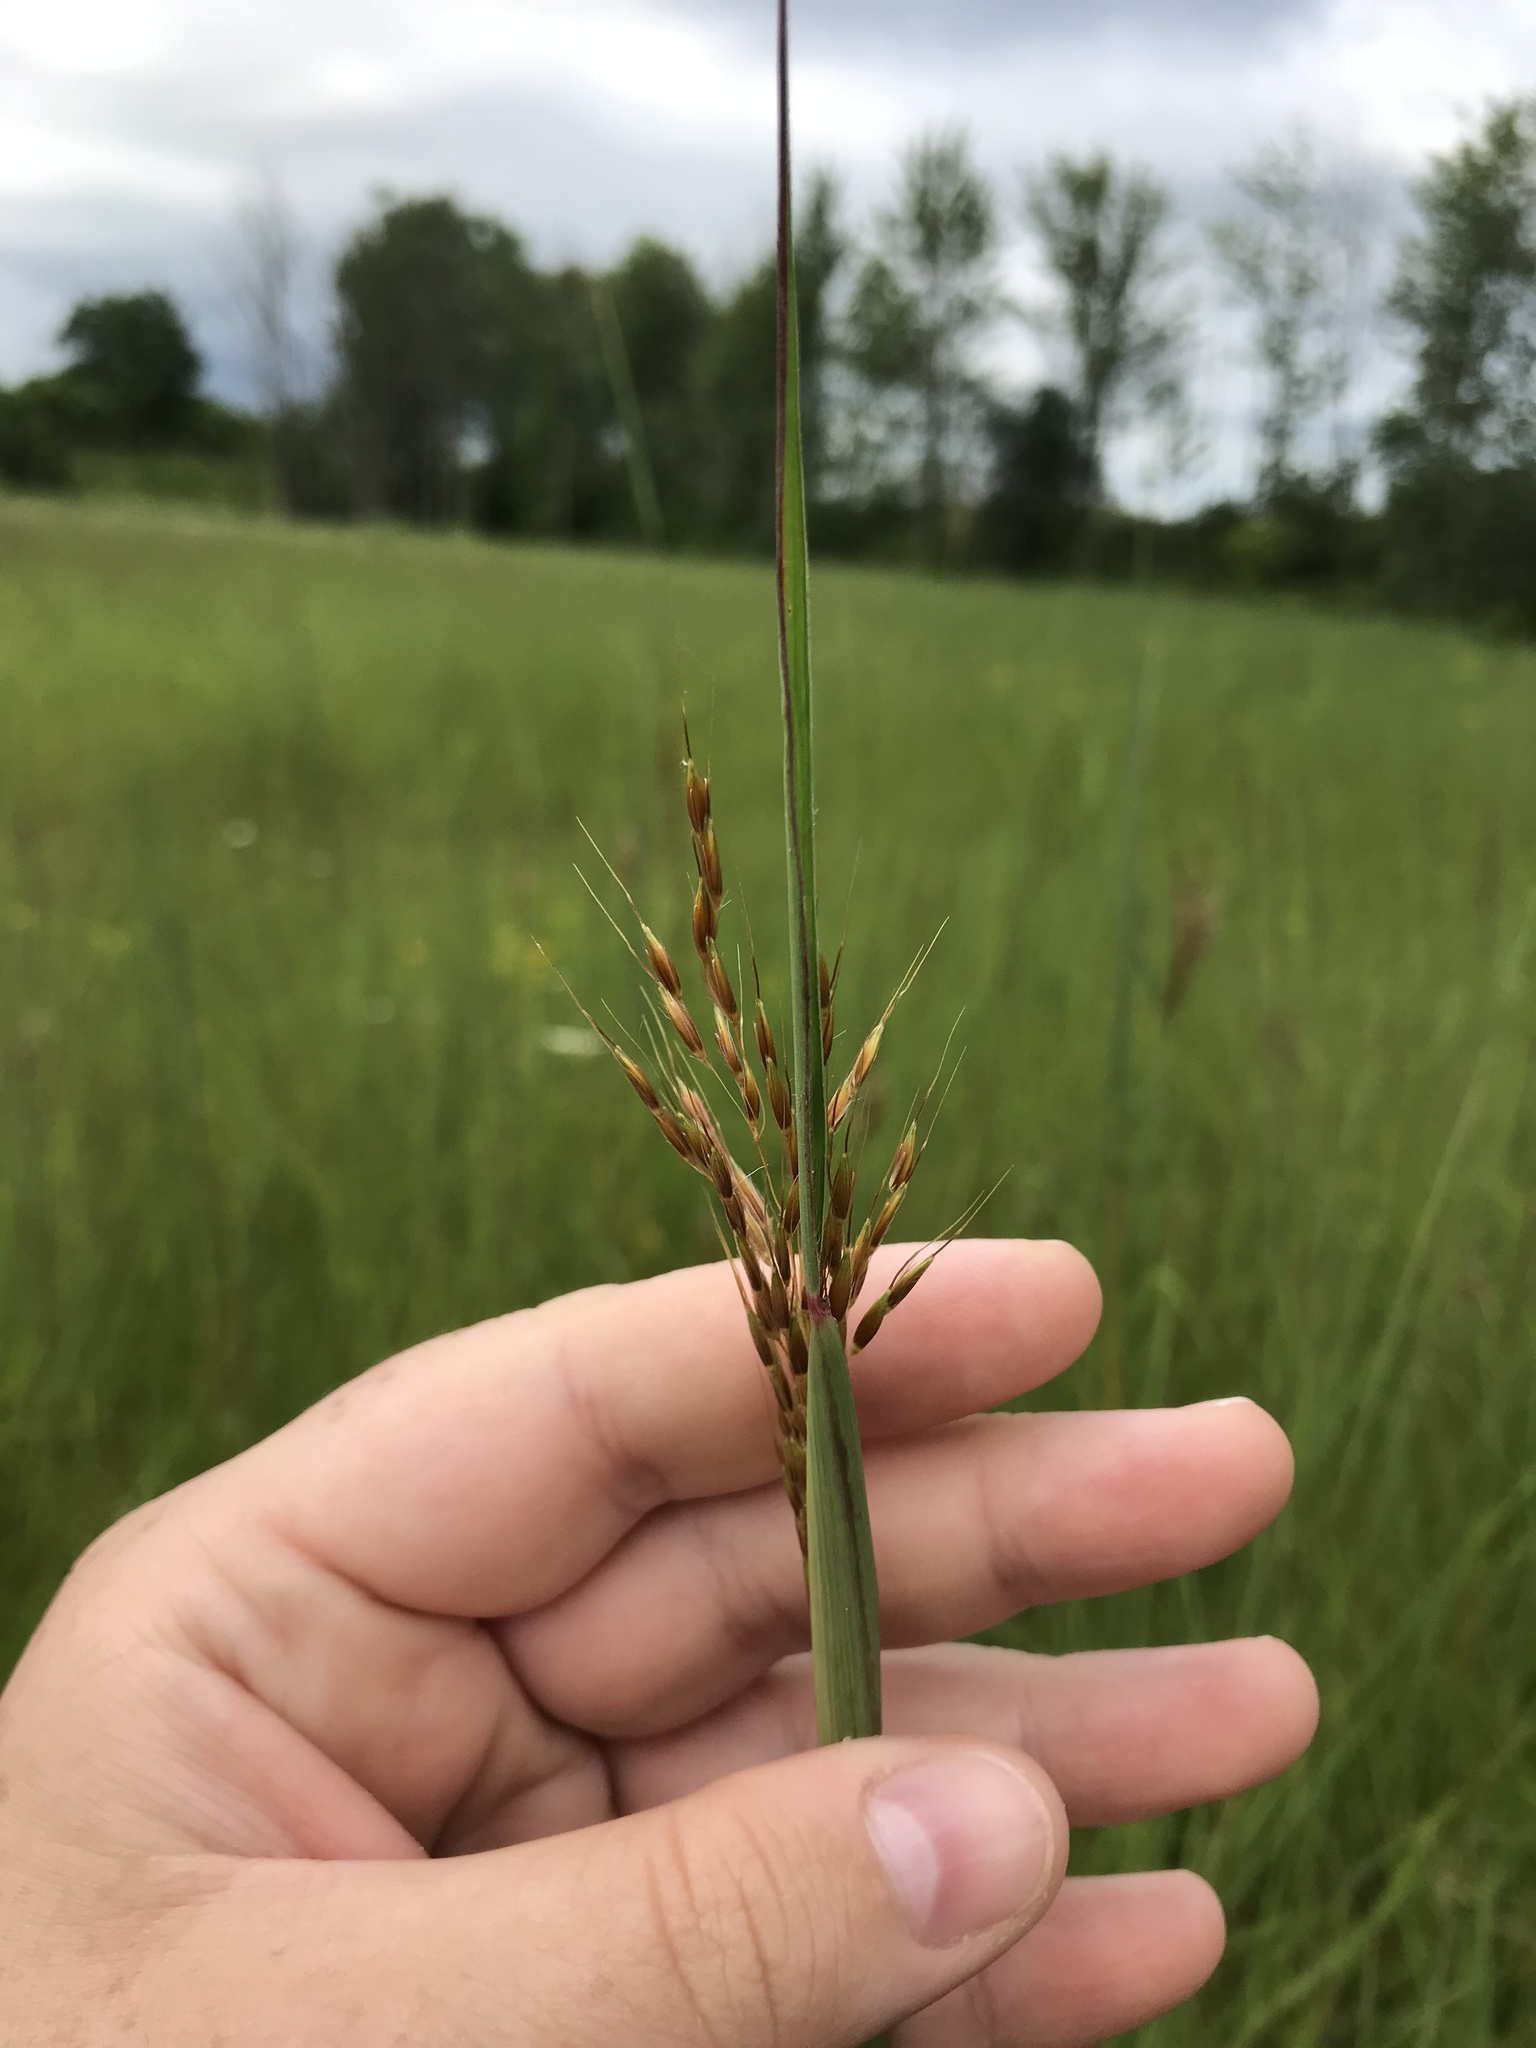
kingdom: Plantae
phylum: Tracheophyta
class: Liliopsida
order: Poales
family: Poaceae
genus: Sorghastrum
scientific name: Sorghastrum nutans
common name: Indian grass
